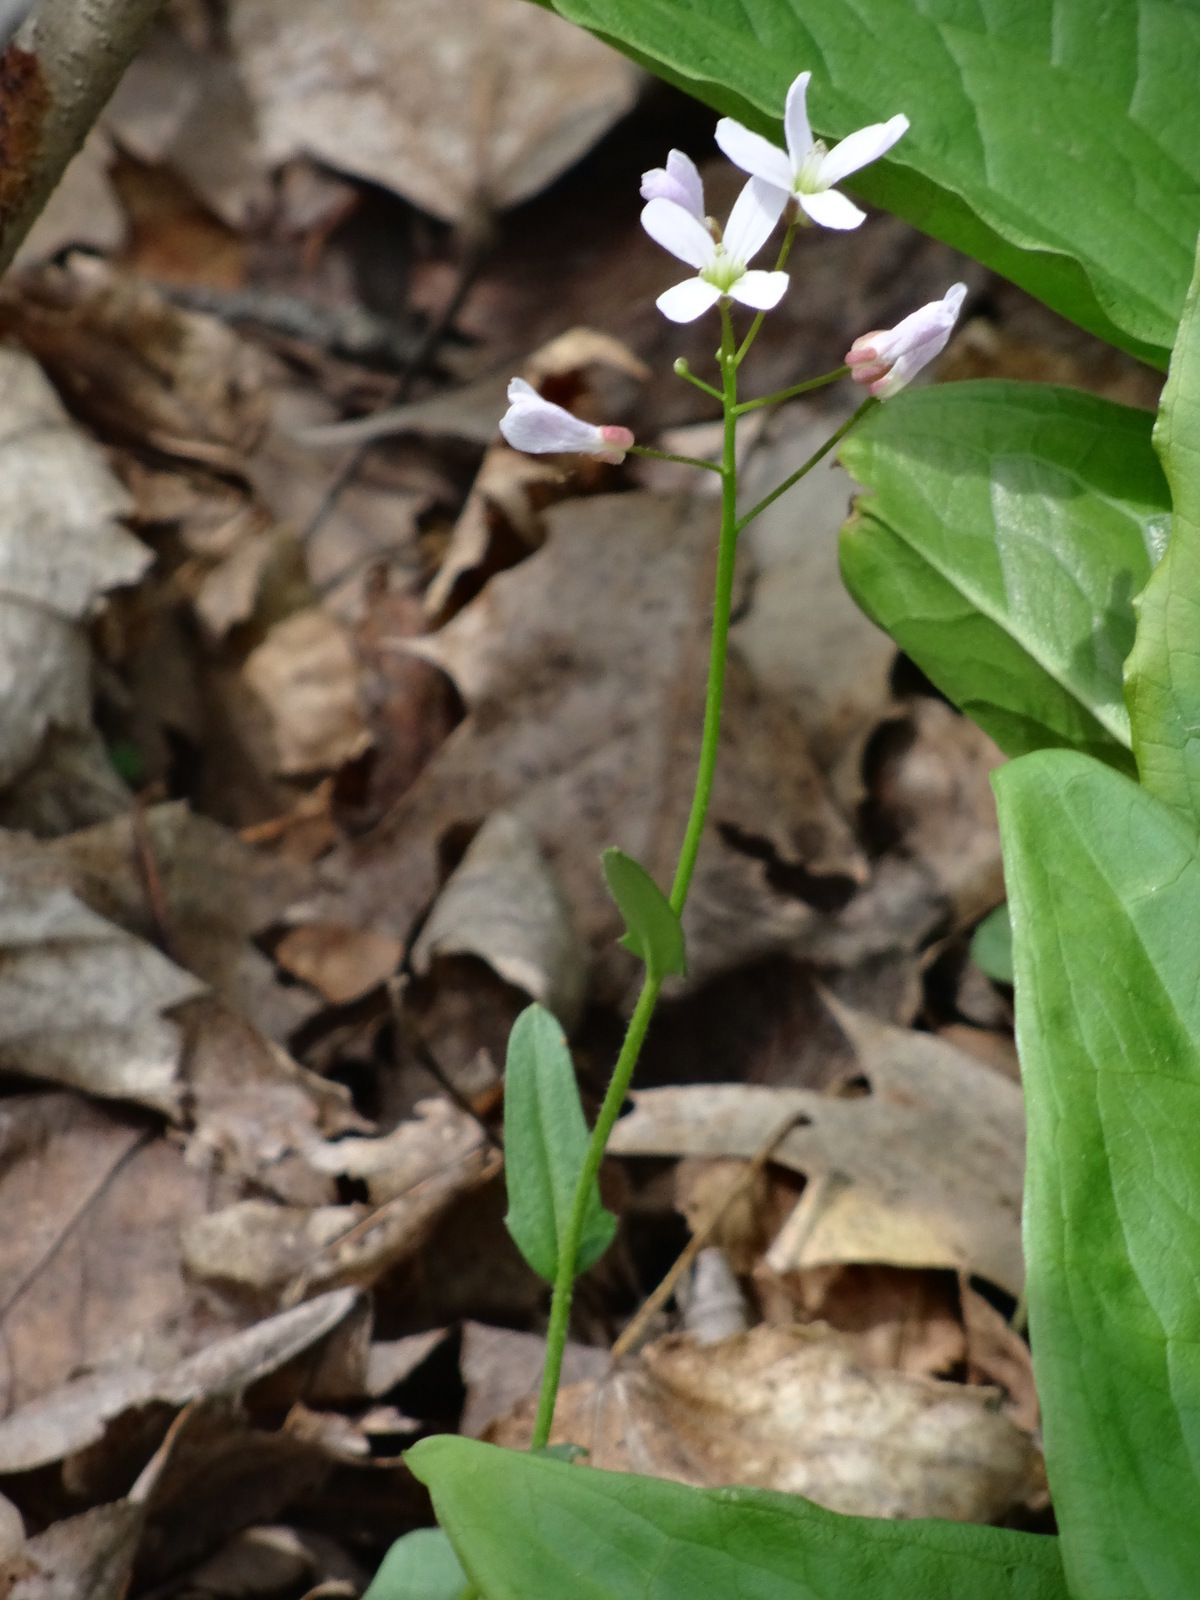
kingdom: Plantae
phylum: Tracheophyta
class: Magnoliopsida
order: Brassicales
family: Brassicaceae
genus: Cardamine
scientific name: Cardamine bulbosa
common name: Spring cress
